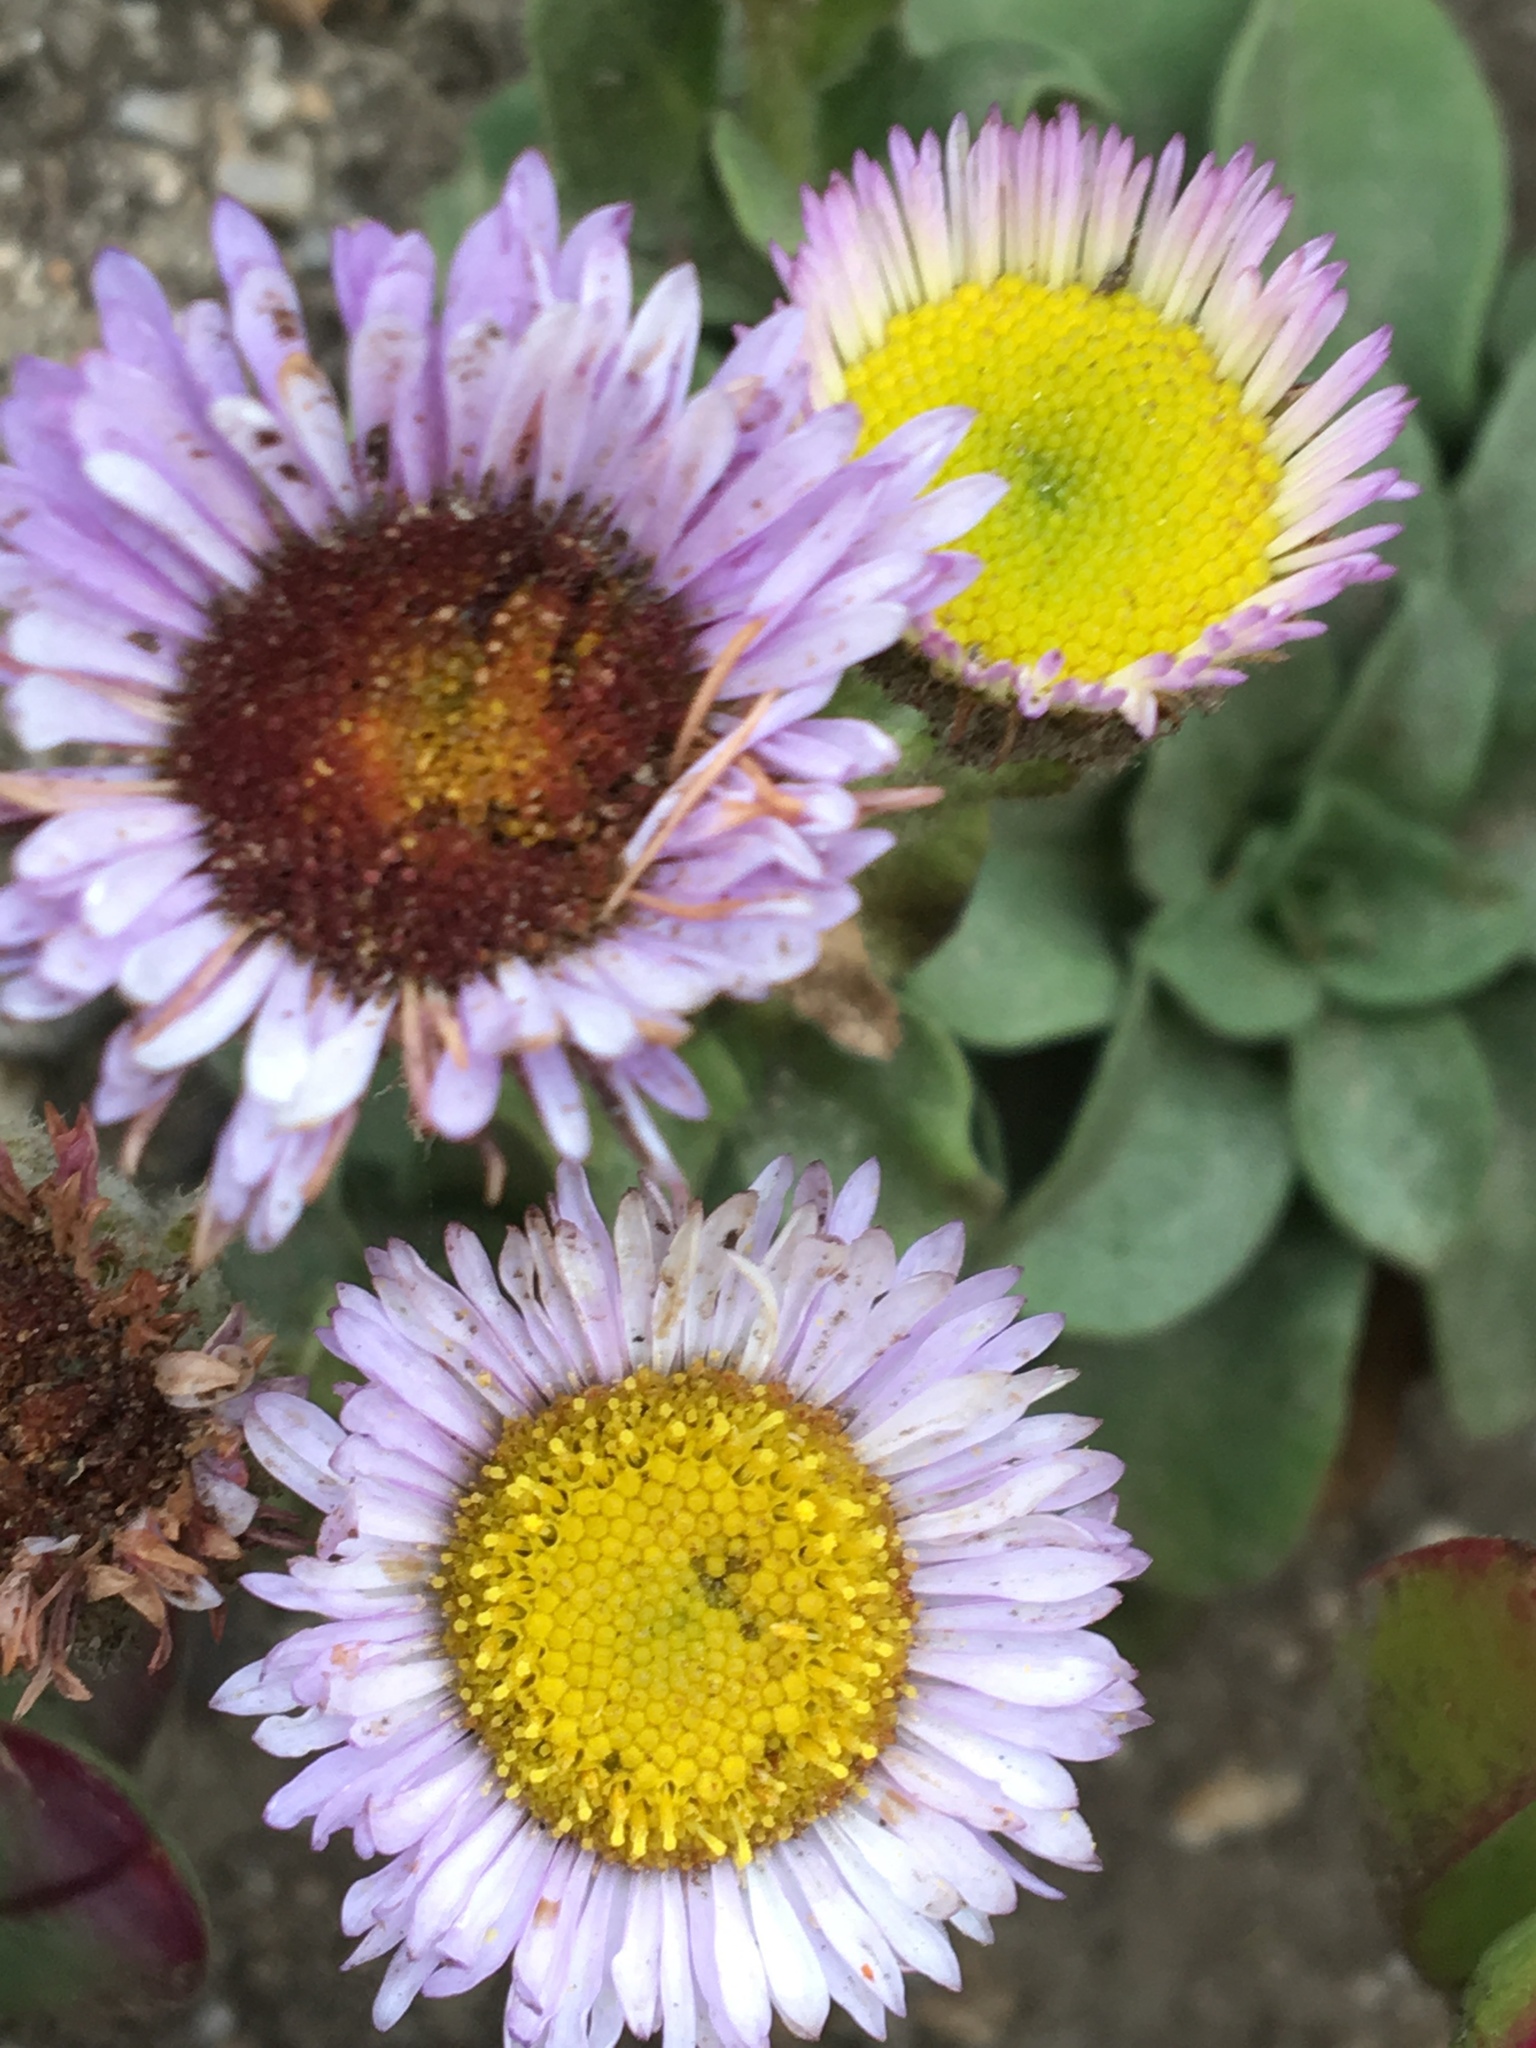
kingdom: Plantae
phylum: Tracheophyta
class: Magnoliopsida
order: Asterales
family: Asteraceae
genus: Erigeron
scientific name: Erigeron glaucus
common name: Seaside daisy
